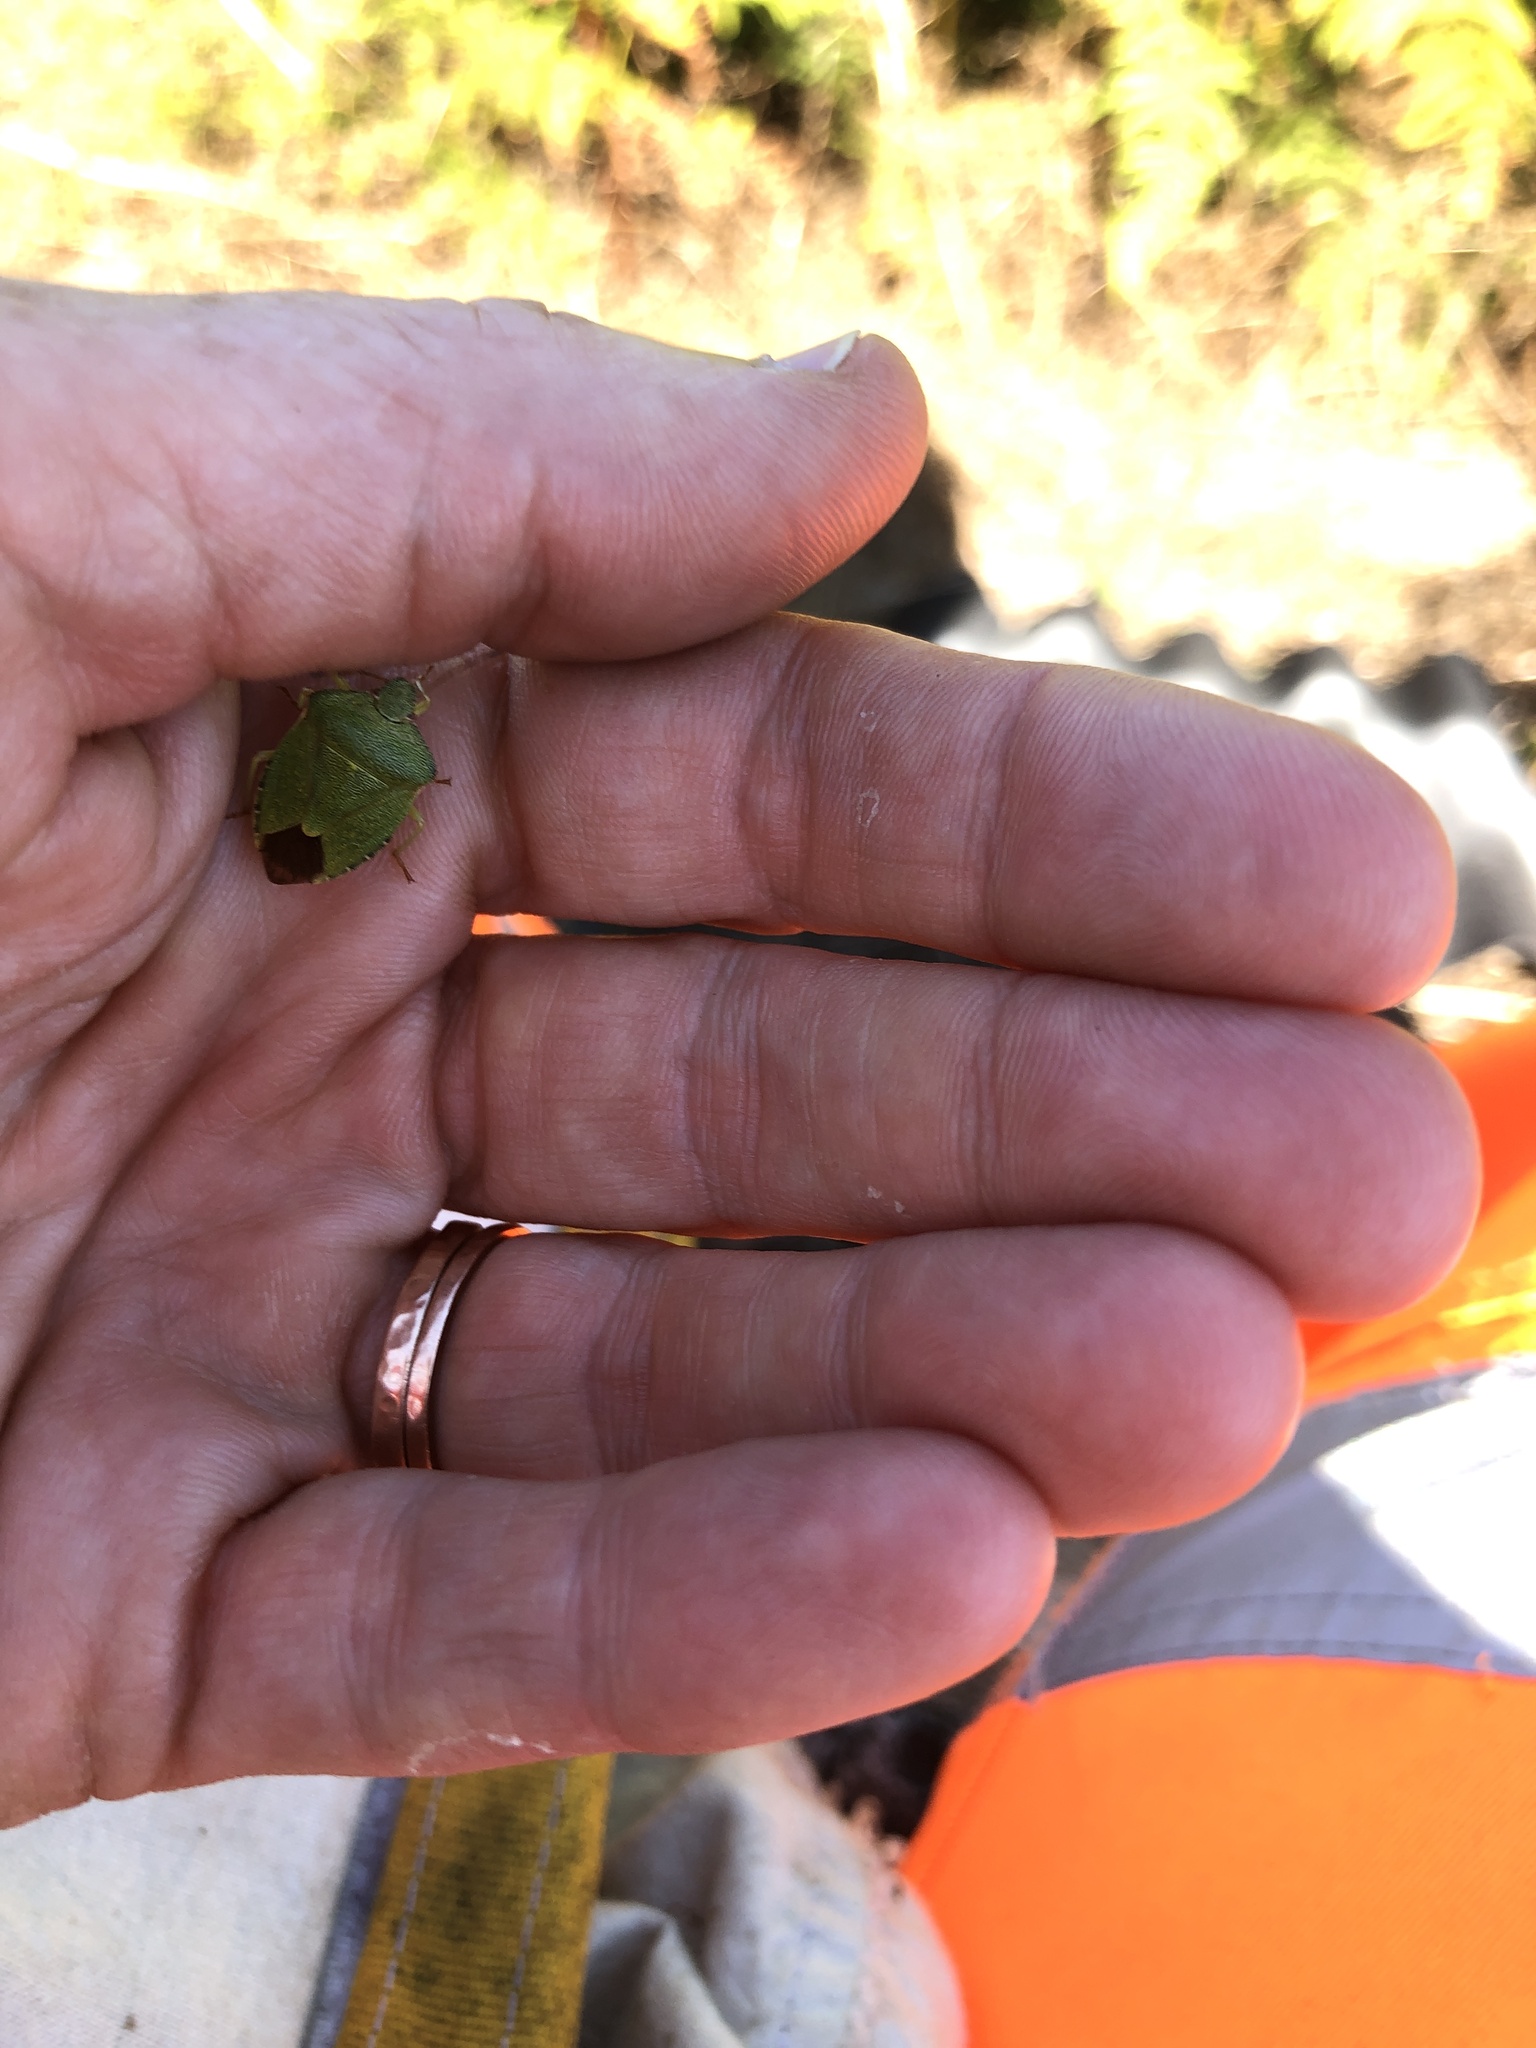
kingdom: Animalia
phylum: Arthropoda
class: Insecta
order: Hemiptera
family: Pentatomidae
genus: Palomena
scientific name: Palomena prasina
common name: Green shieldbug
